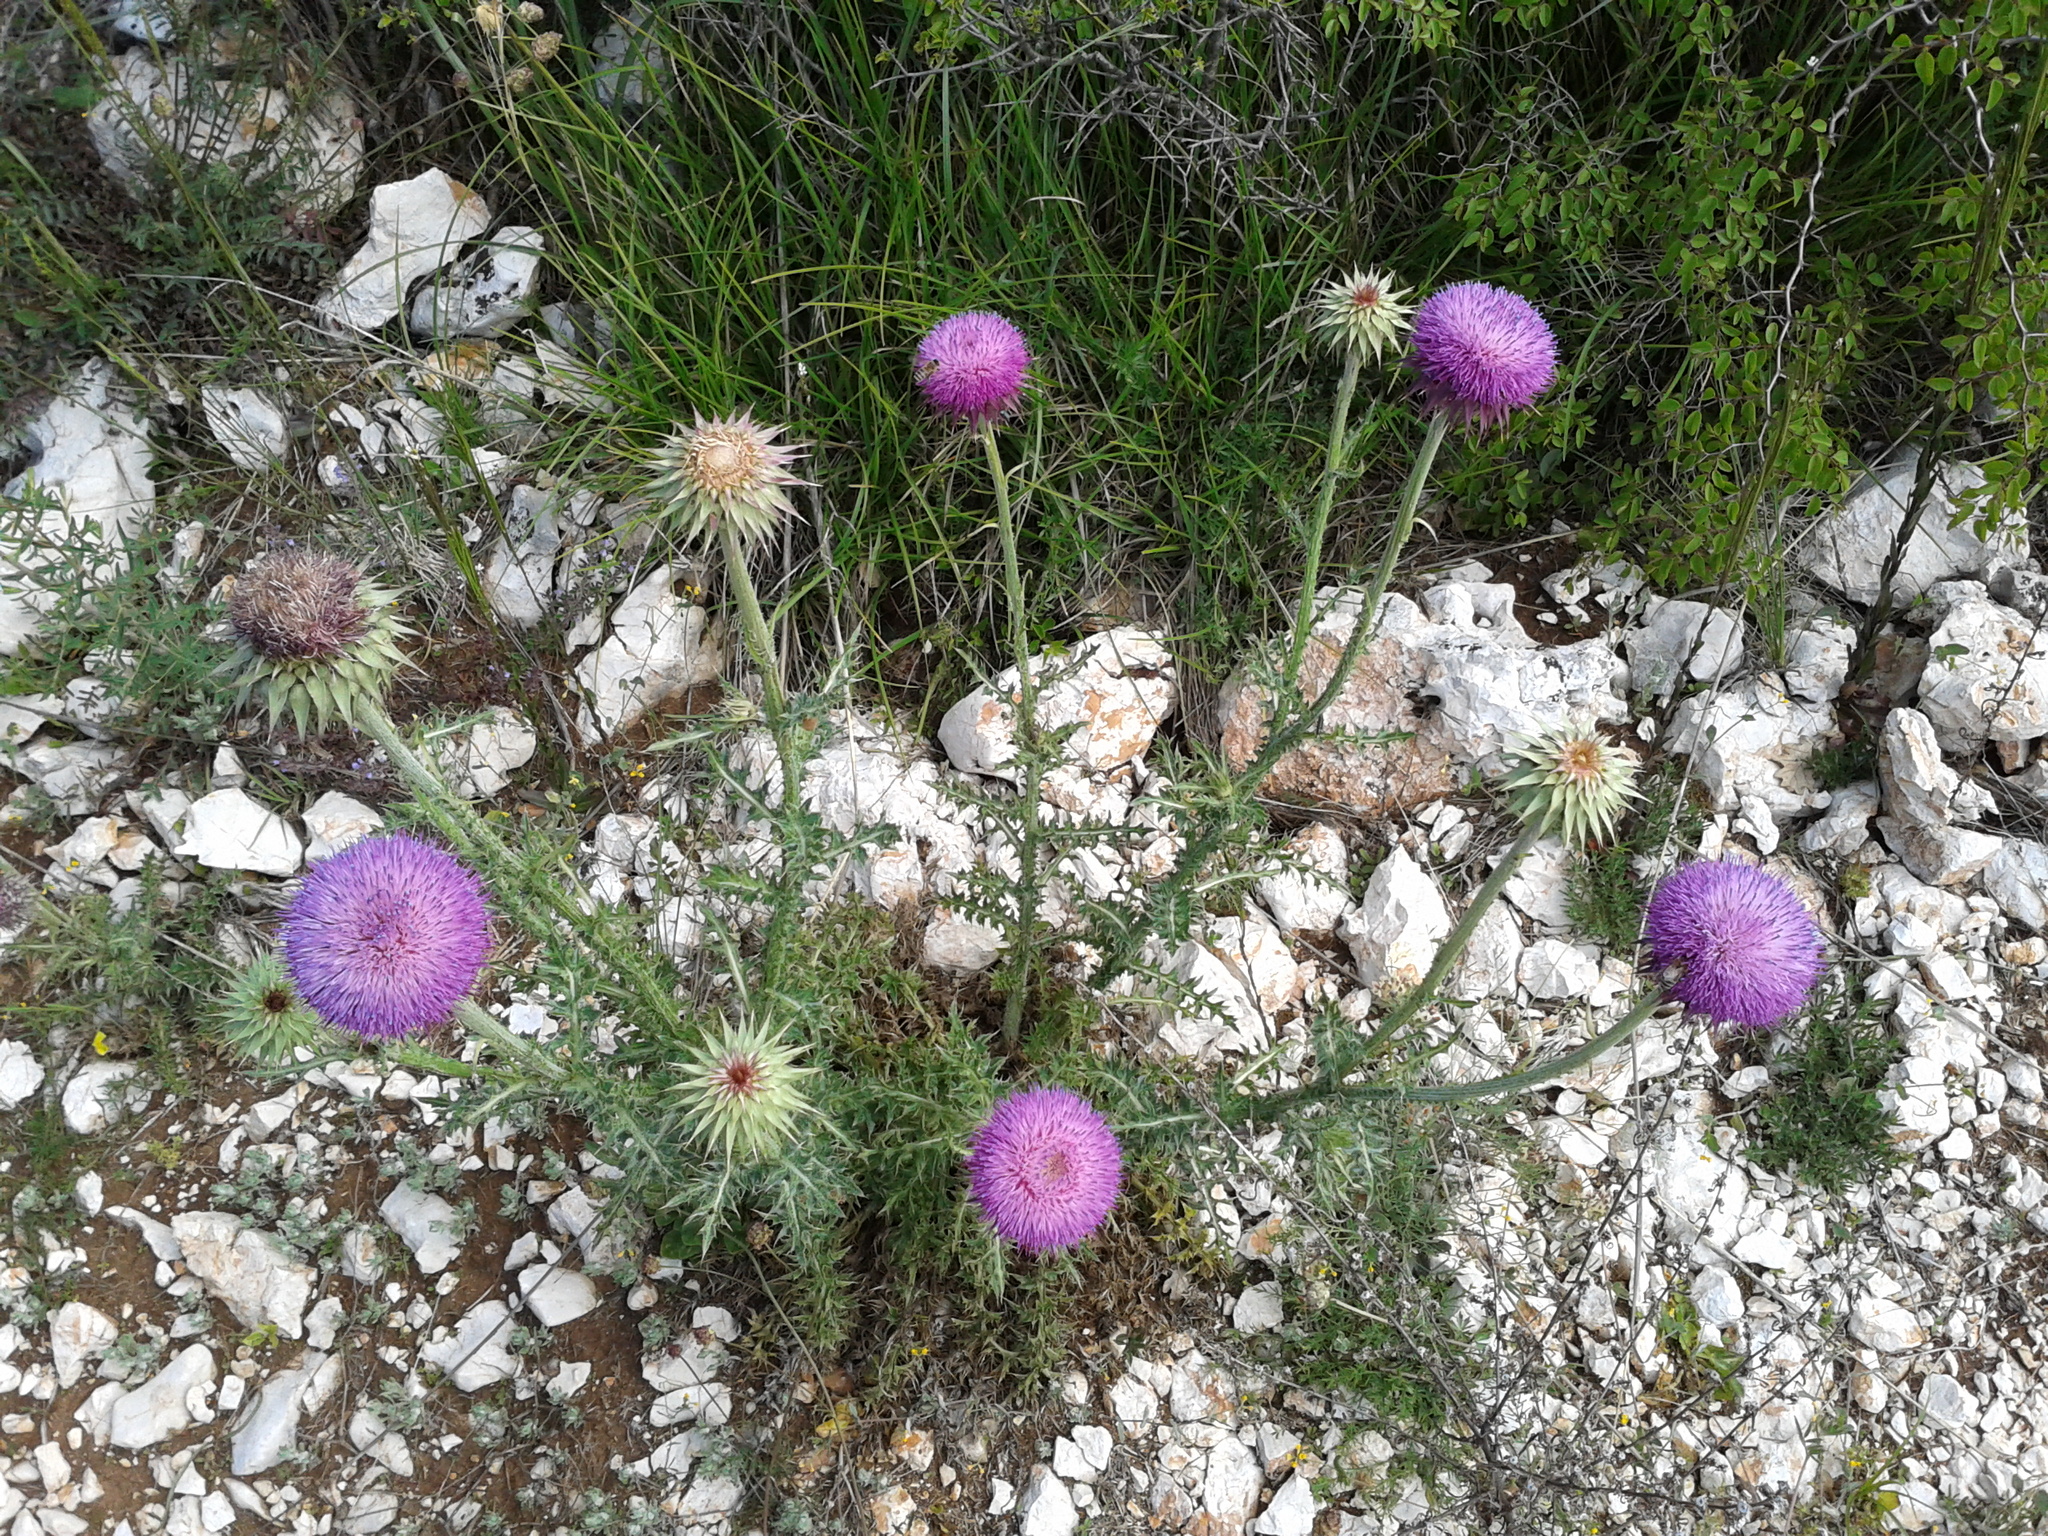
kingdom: Plantae
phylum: Tracheophyta
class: Magnoliopsida
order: Asterales
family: Asteraceae
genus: Carduus
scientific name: Carduus nutans
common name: Musk thistle
